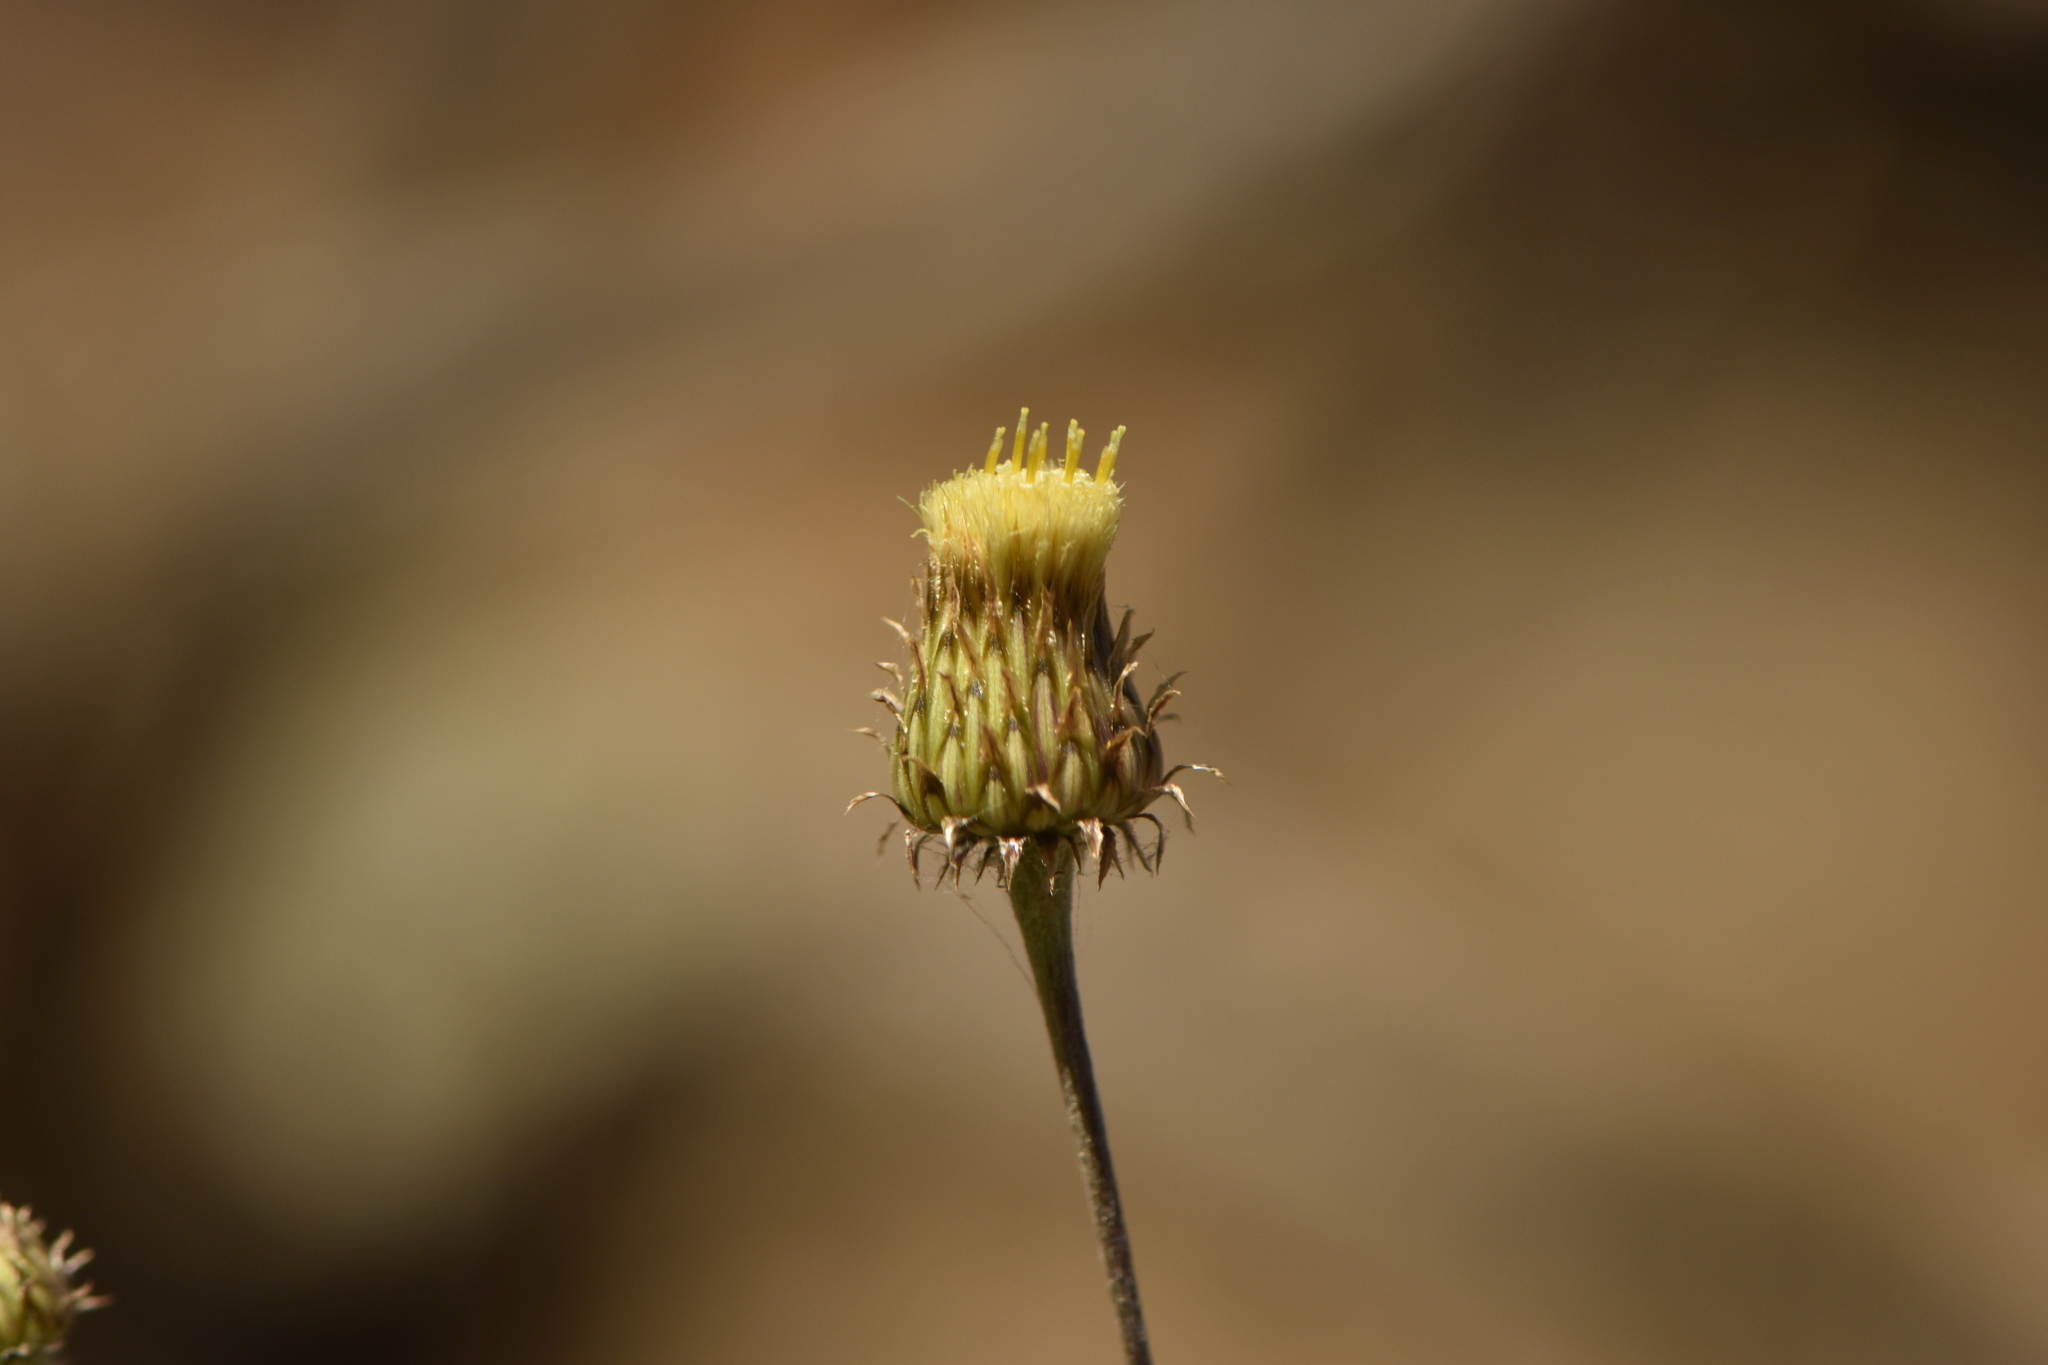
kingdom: Plantae
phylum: Tracheophyta
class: Magnoliopsida
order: Asterales
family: Asteraceae
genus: Phagnalon
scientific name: Phagnalon saxatile
